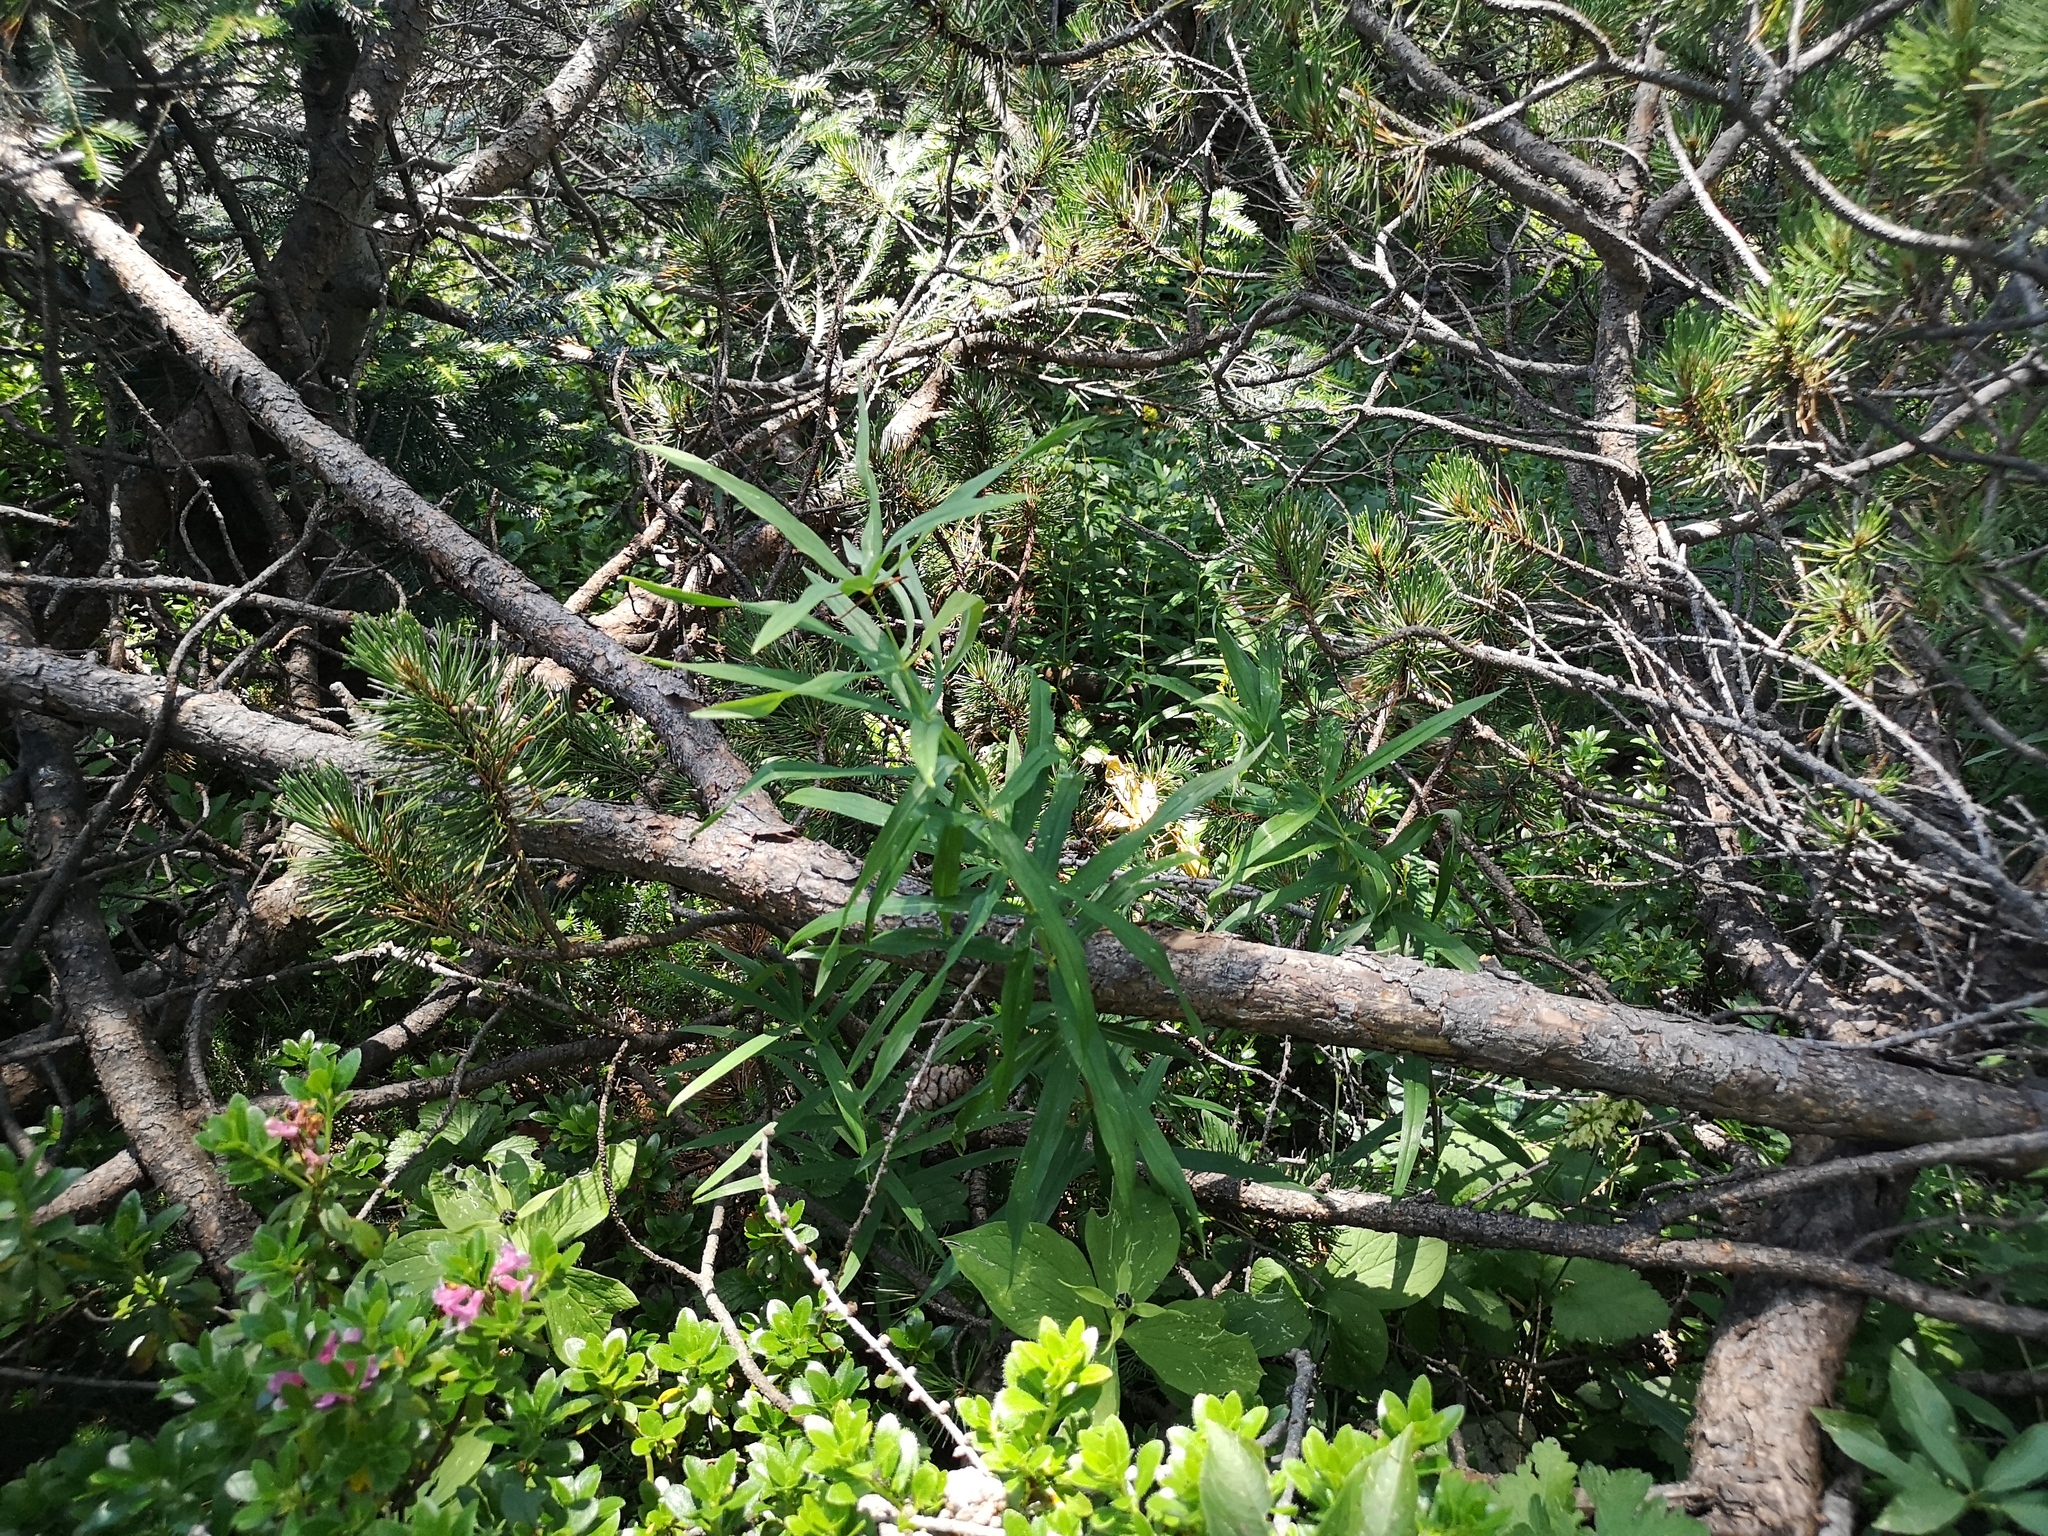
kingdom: Plantae
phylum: Tracheophyta
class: Liliopsida
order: Asparagales
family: Asparagaceae
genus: Polygonatum
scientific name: Polygonatum verticillatum
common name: Whorled solomon's-seal
